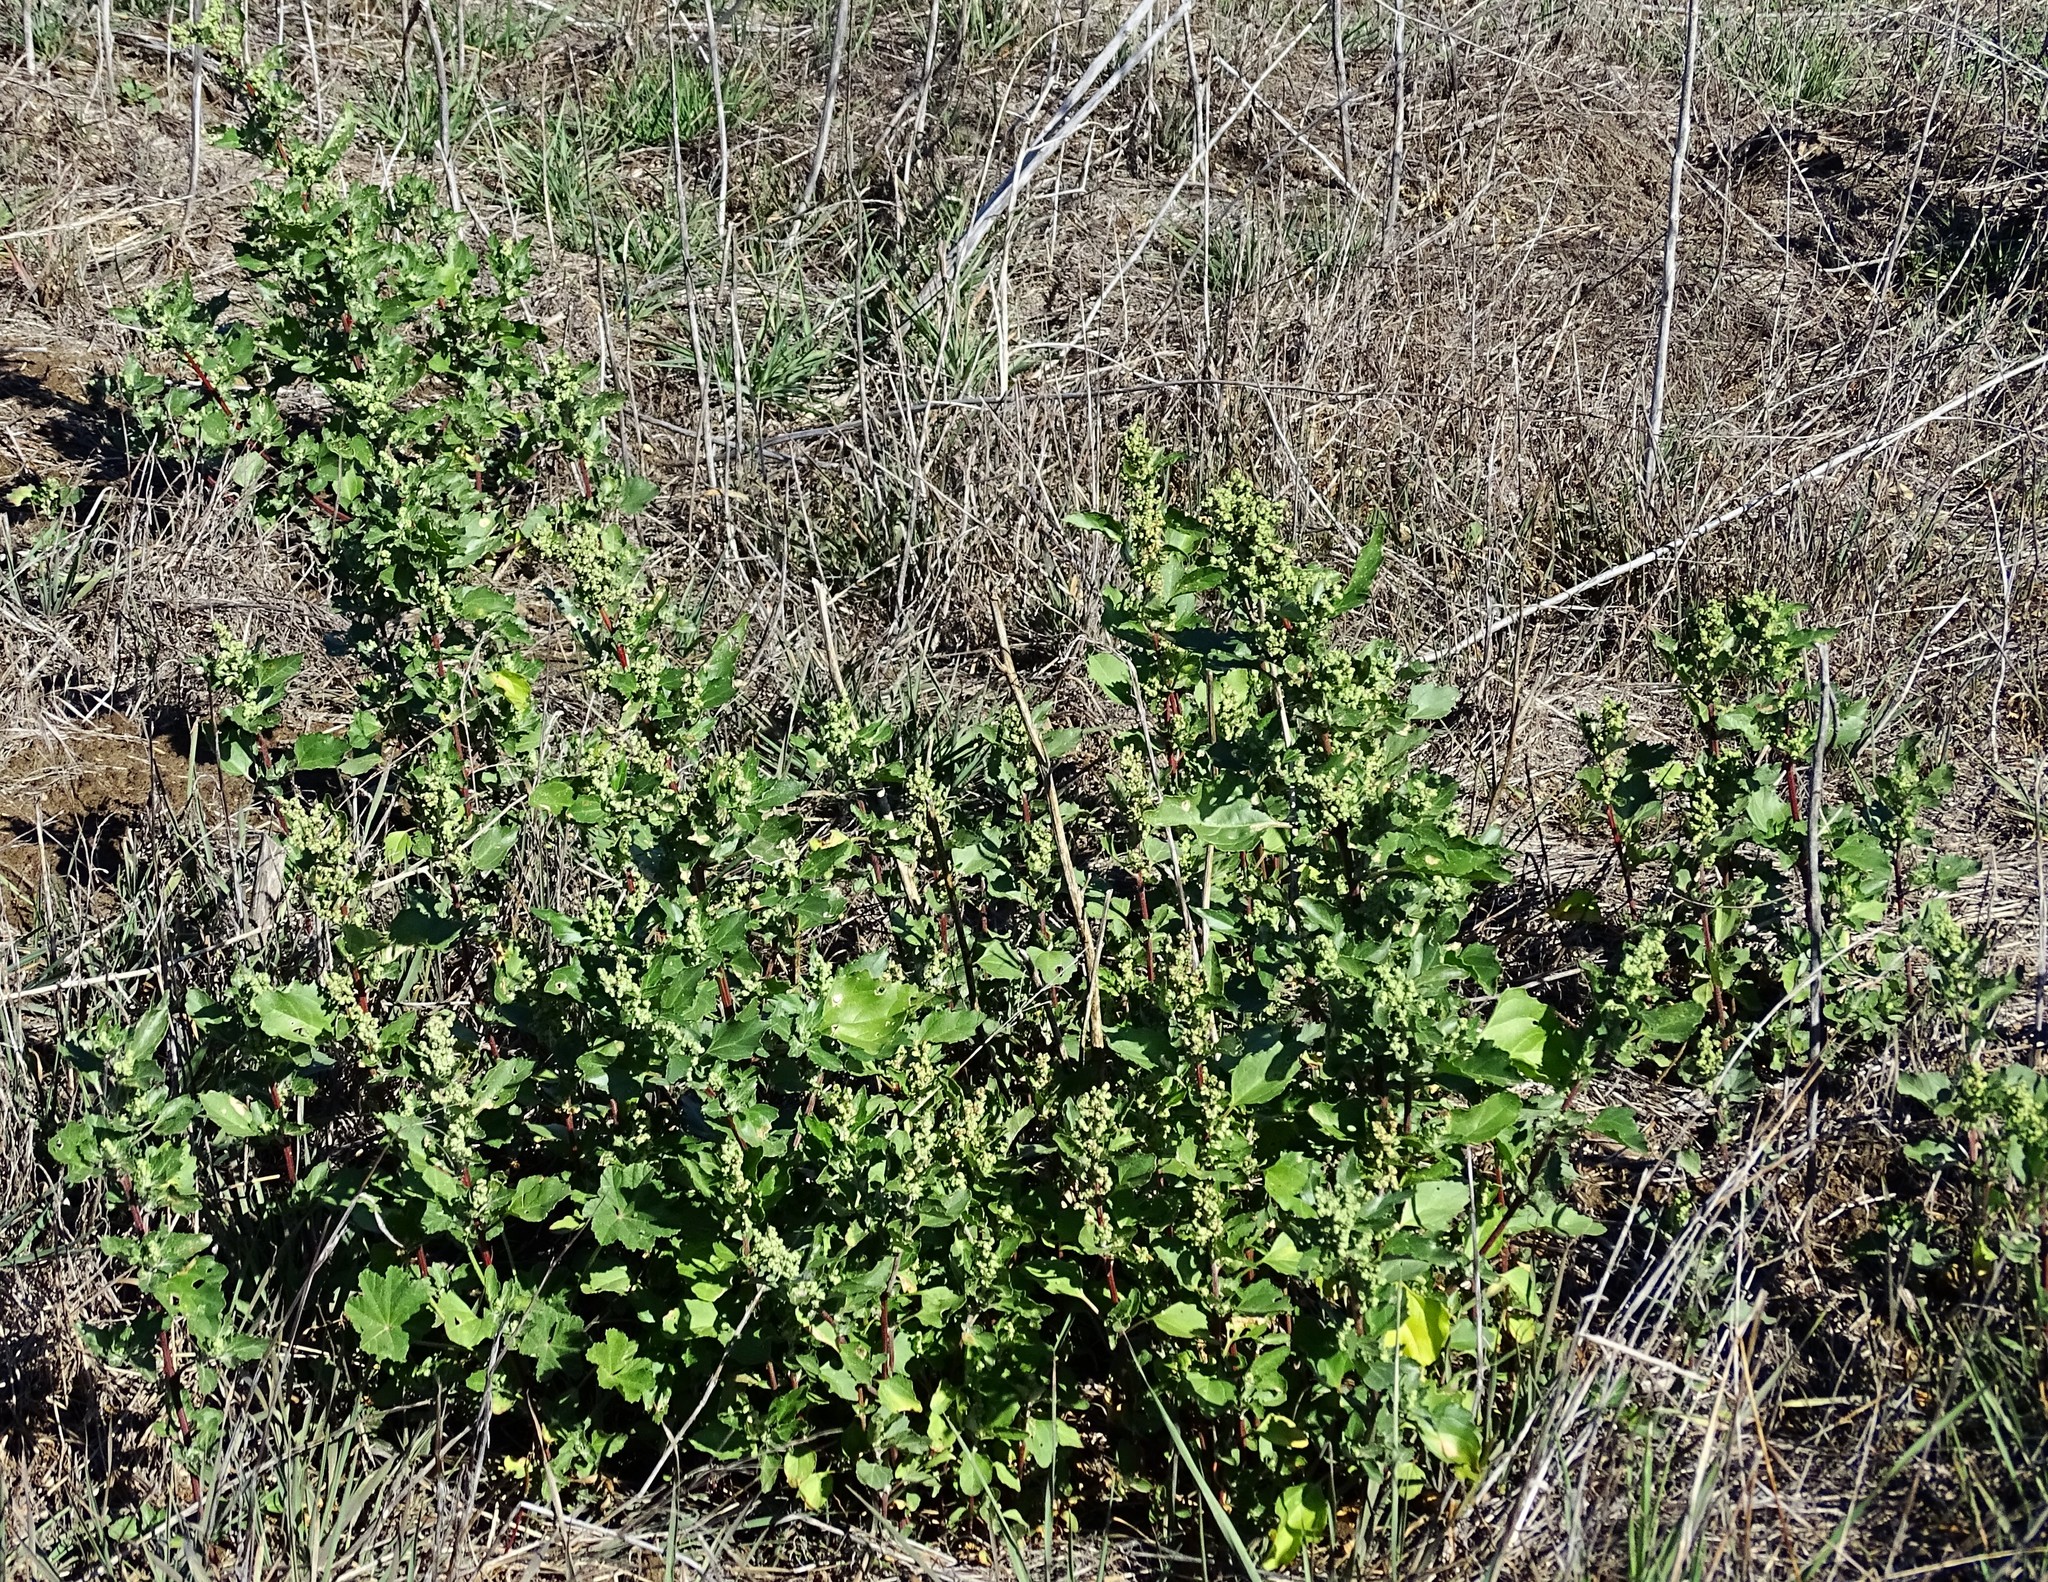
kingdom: Plantae
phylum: Tracheophyta
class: Magnoliopsida
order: Caryophyllales
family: Amaranthaceae
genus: Chenopodiastrum
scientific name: Chenopodiastrum murale
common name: Sowbane
